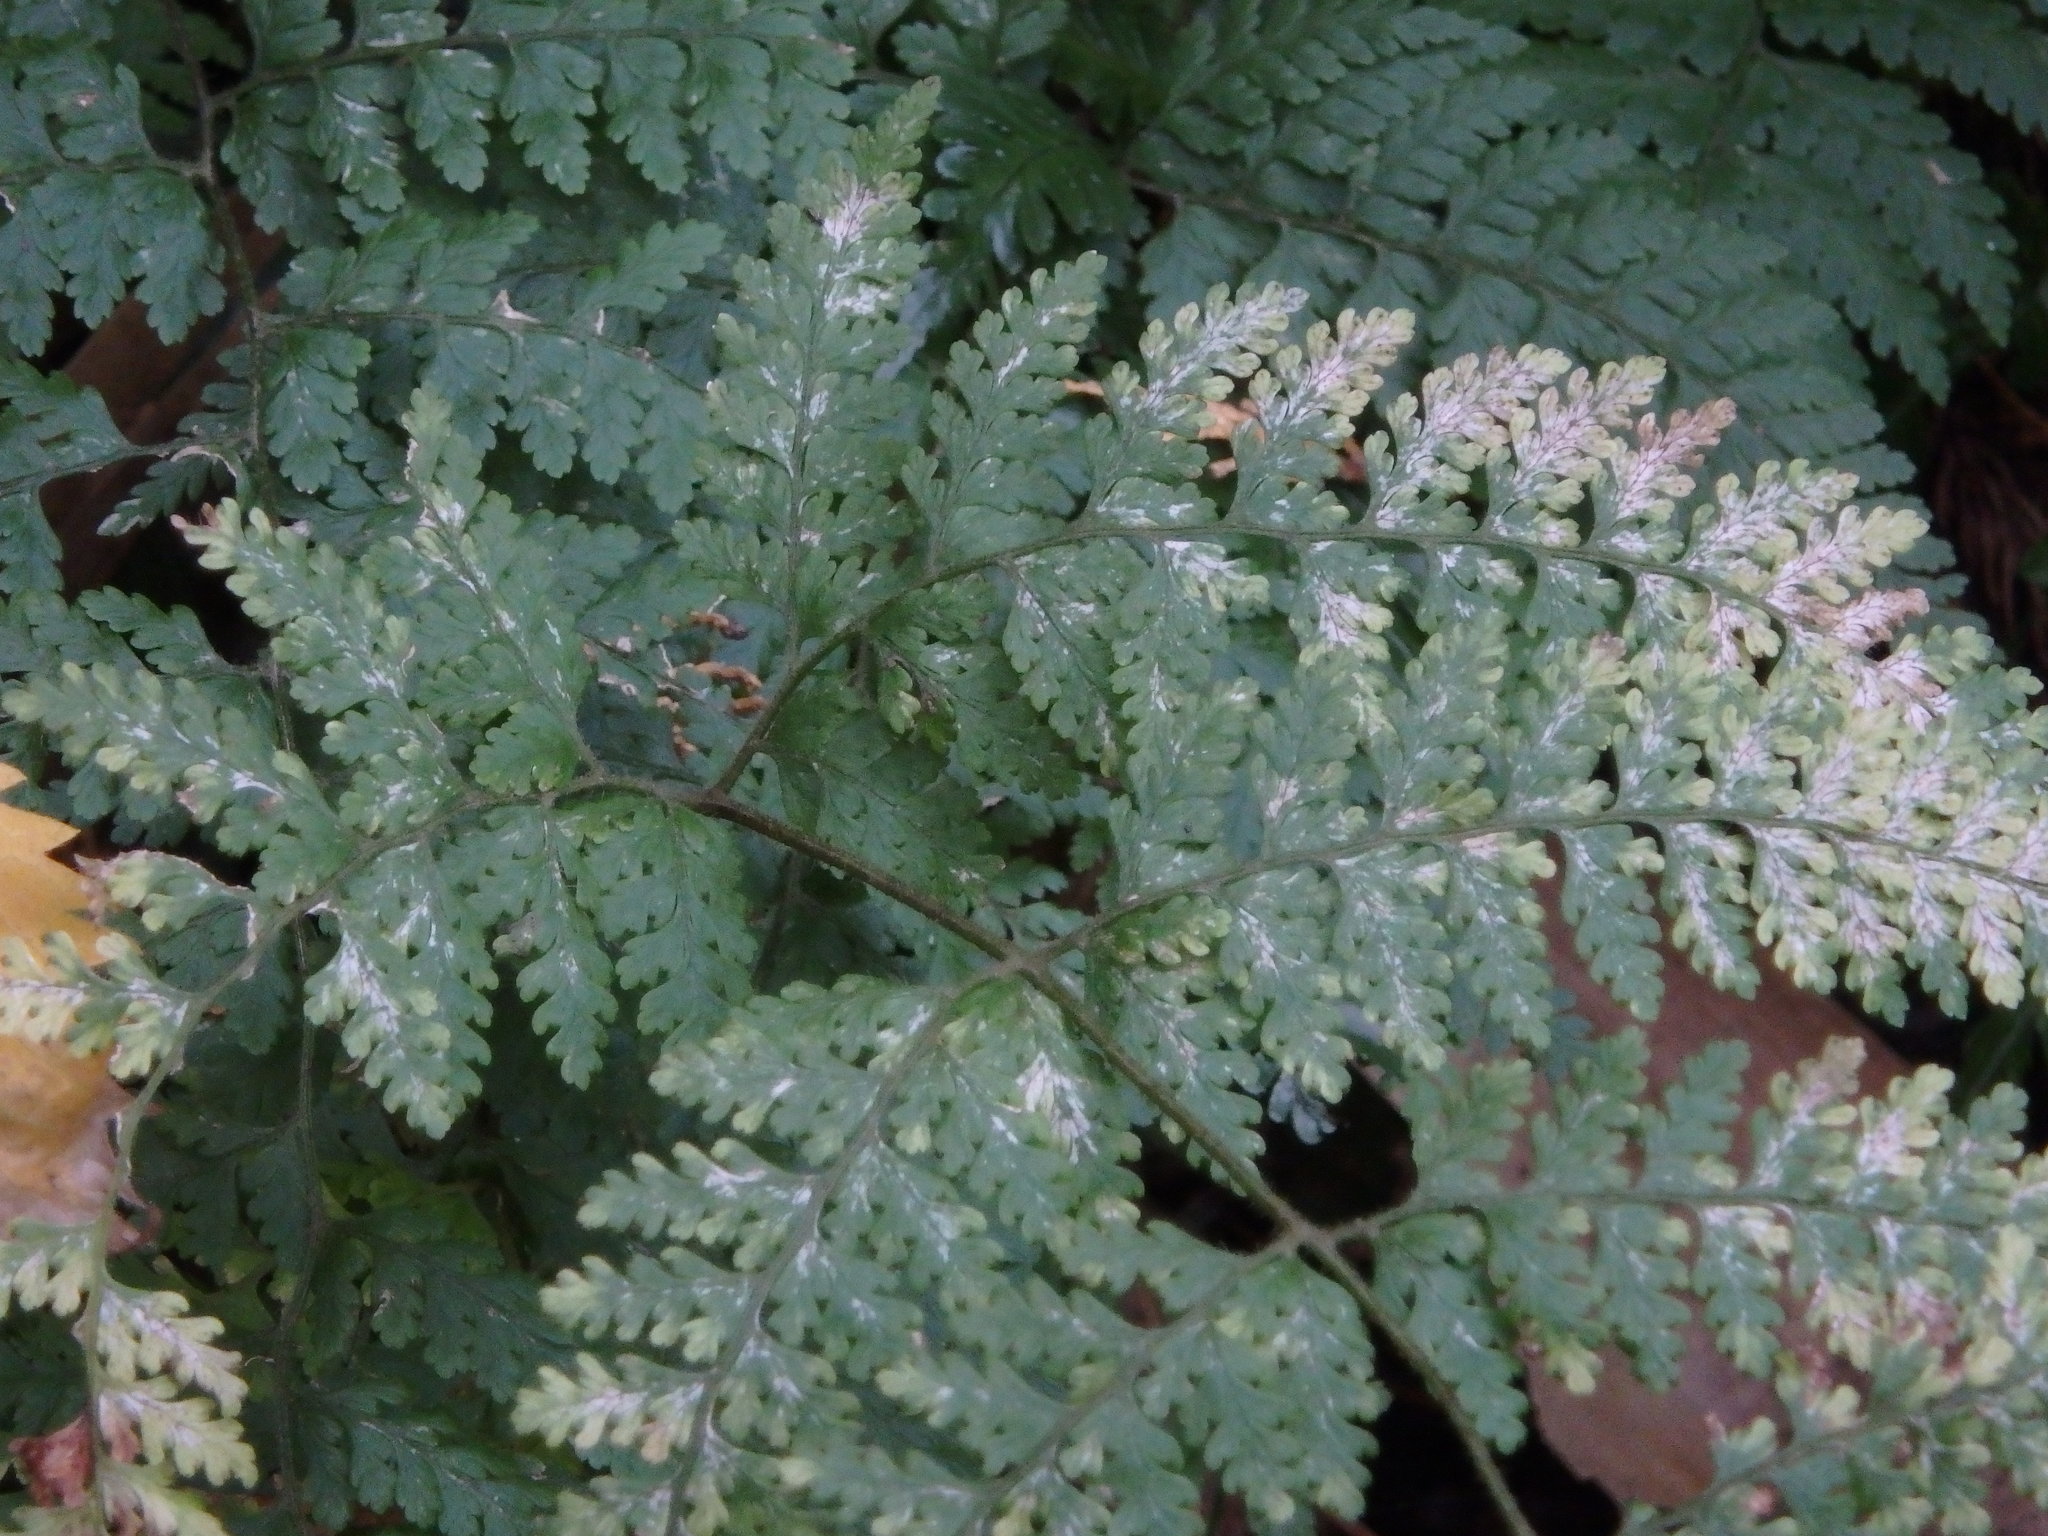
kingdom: Plantae
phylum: Tracheophyta
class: Polypodiopsida
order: Polypodiales
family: Dennstaedtiaceae
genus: Sitobolium
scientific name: Sitobolium zeylanicum
